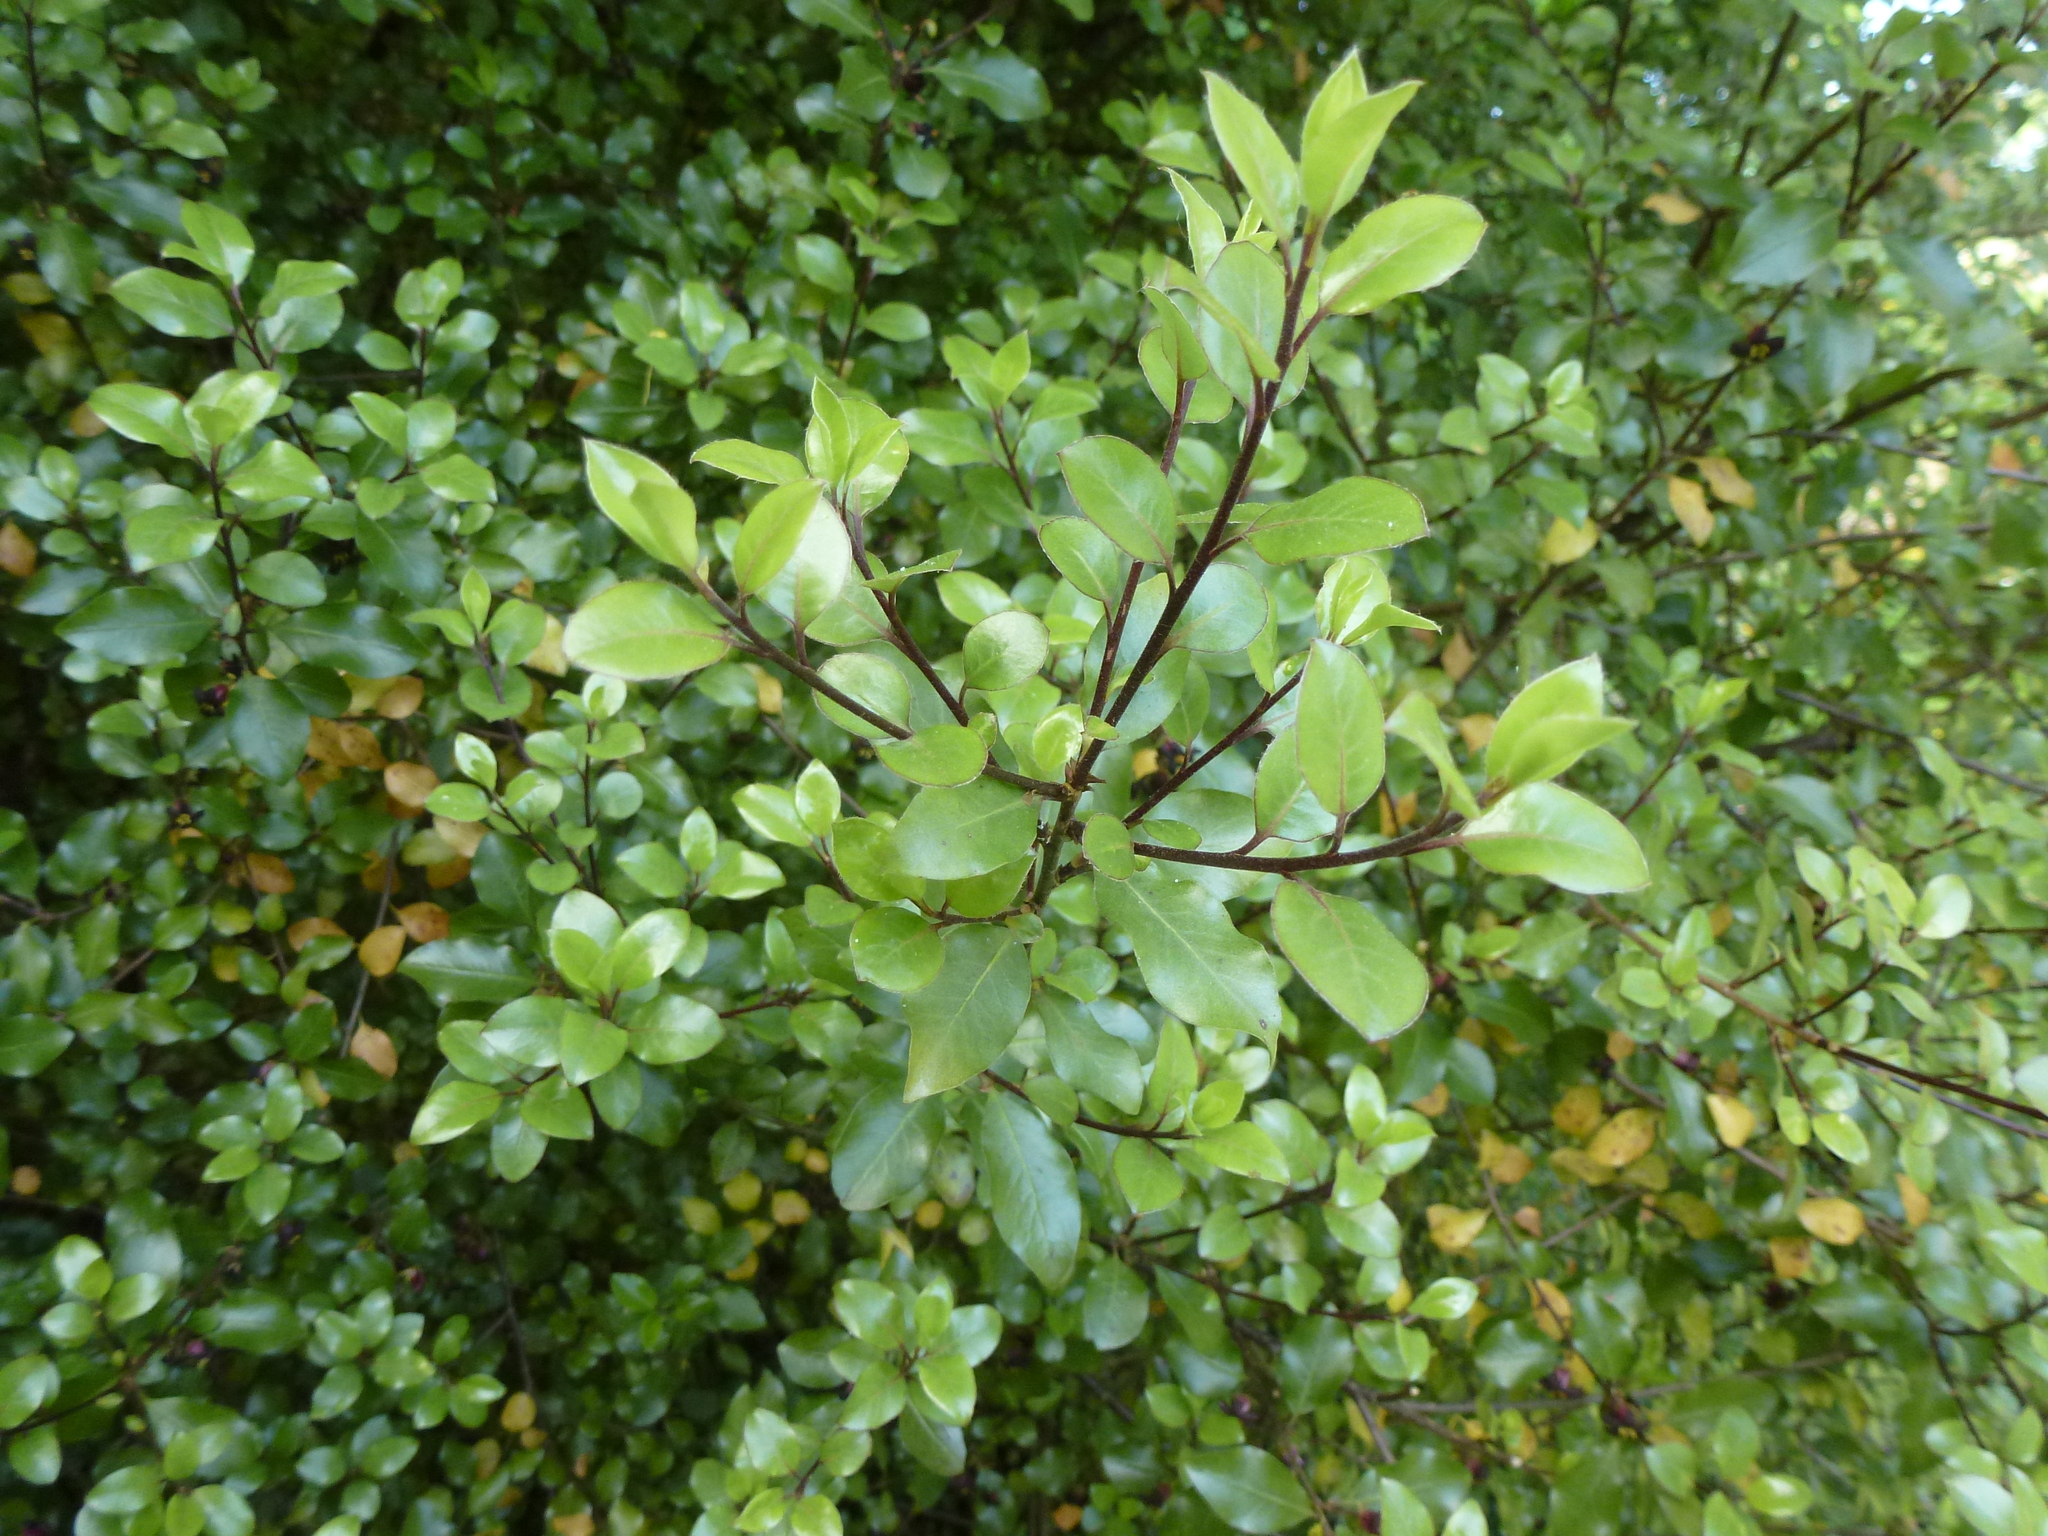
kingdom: Plantae
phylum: Tracheophyta
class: Magnoliopsida
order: Apiales
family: Pittosporaceae
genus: Pittosporum
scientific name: Pittosporum tenuifolium
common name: Kohuhu
